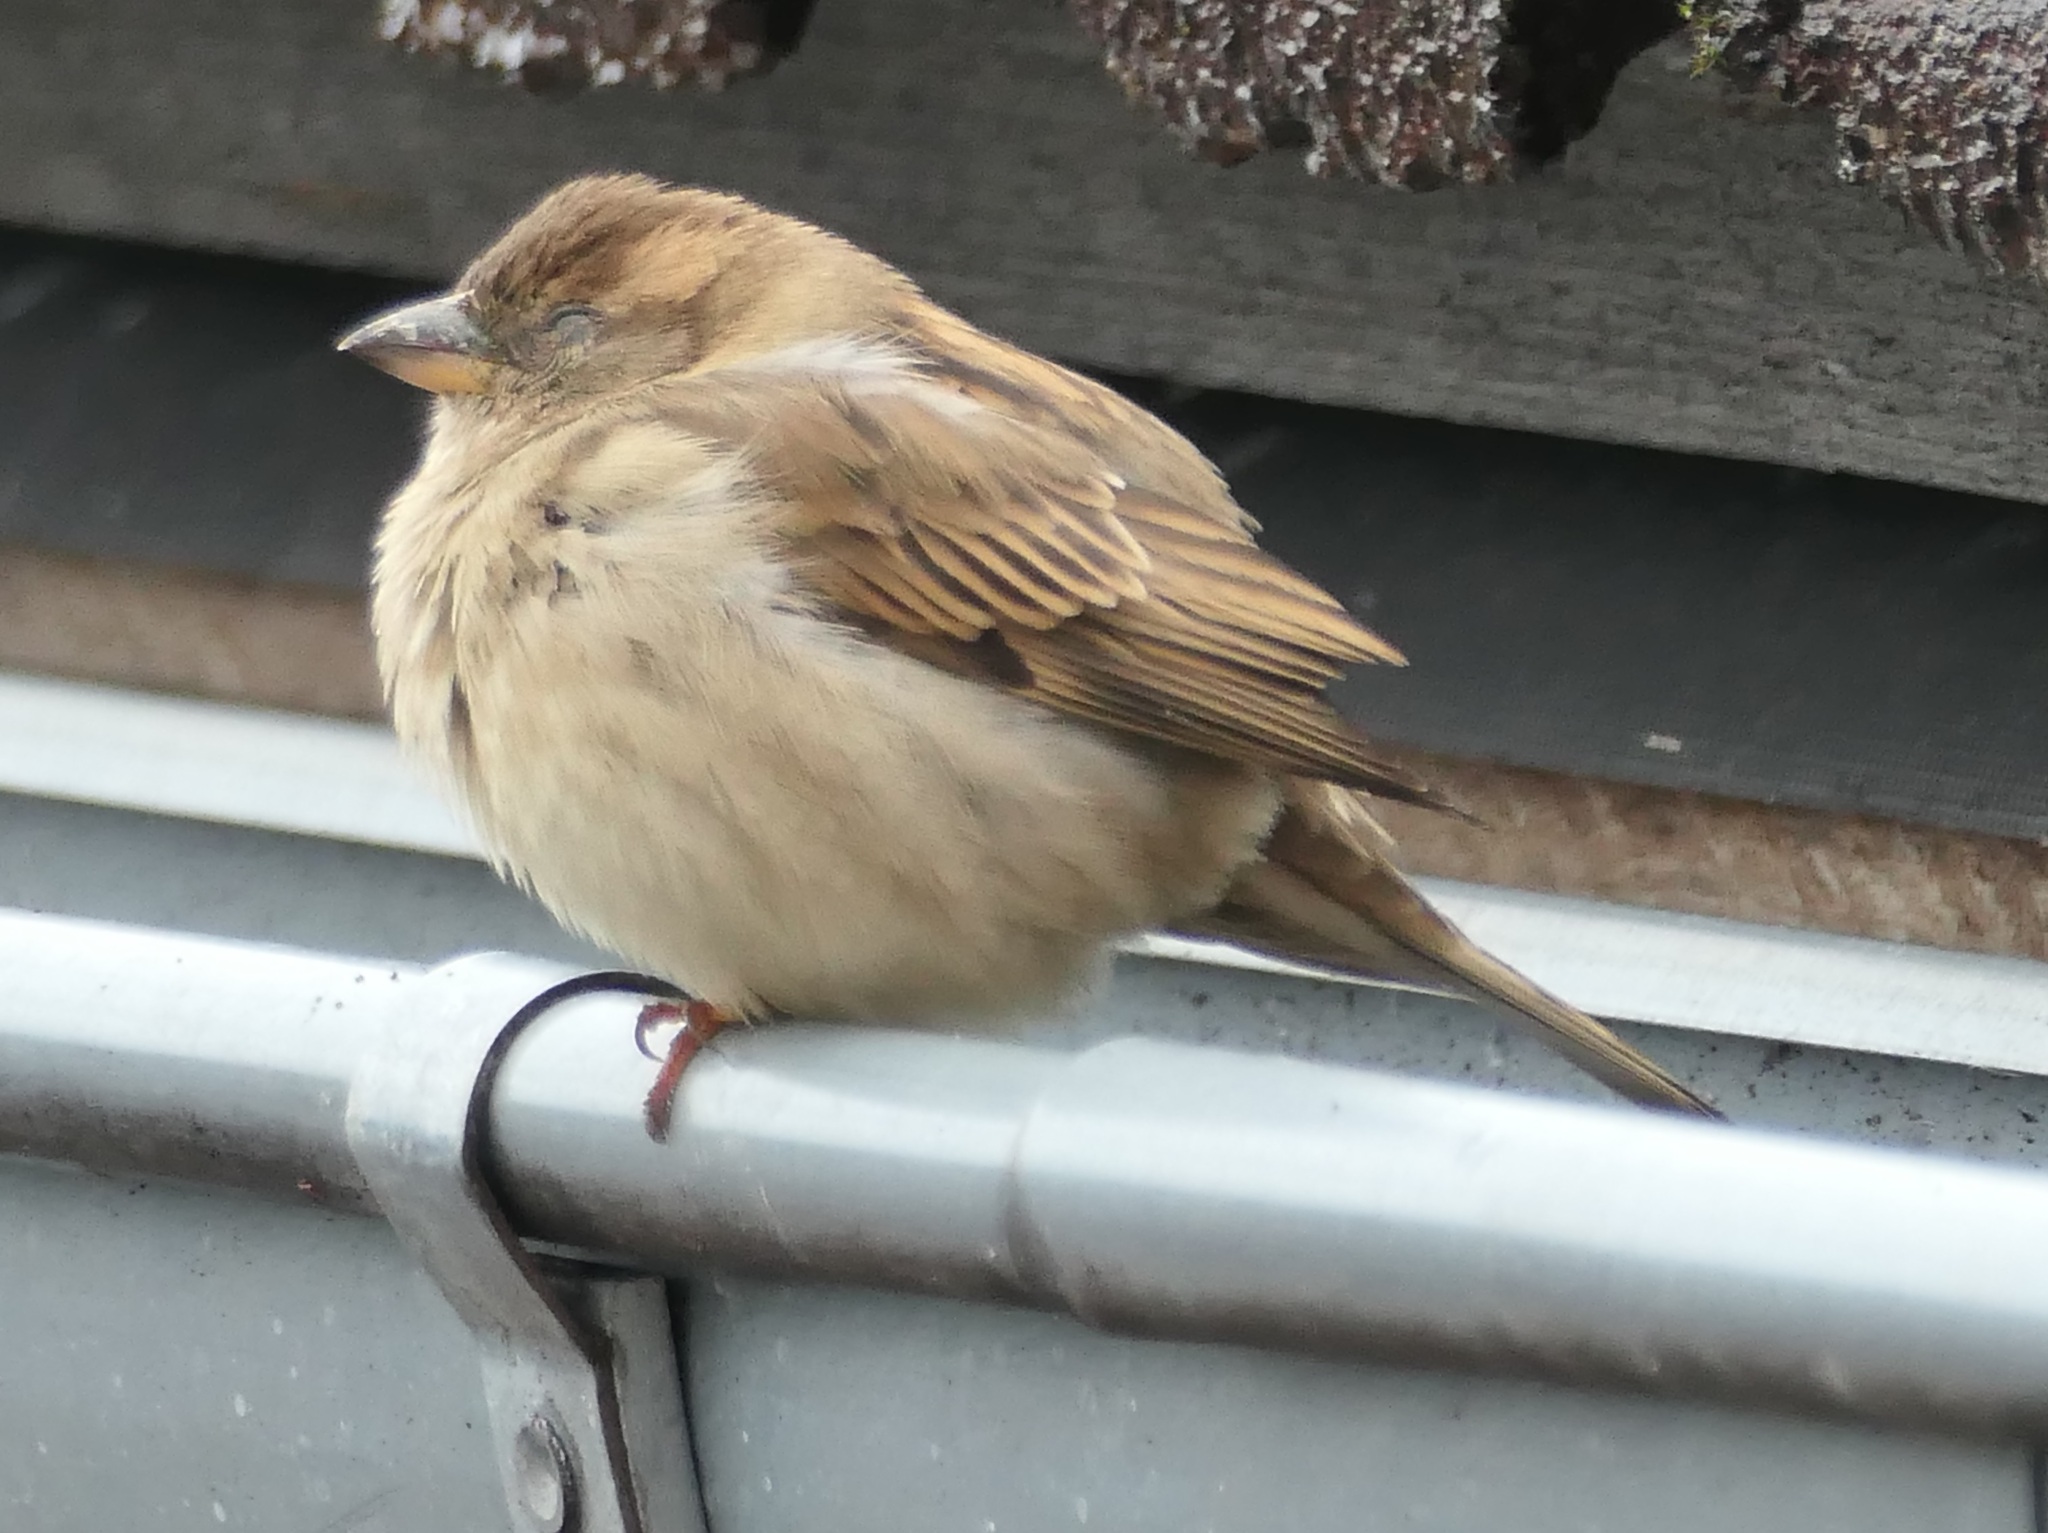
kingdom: Animalia
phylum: Chordata
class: Aves
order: Passeriformes
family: Passeridae
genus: Passer
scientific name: Passer domesticus
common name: House sparrow
